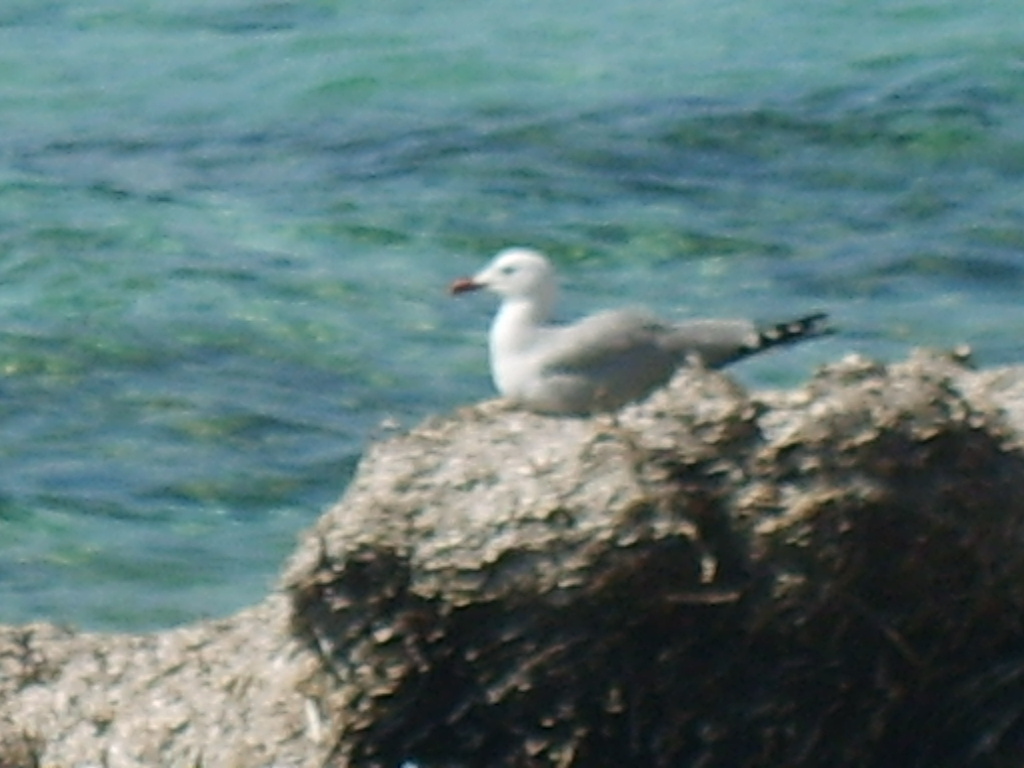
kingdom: Animalia
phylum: Chordata
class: Aves
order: Charadriiformes
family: Laridae
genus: Ichthyaetus
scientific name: Ichthyaetus audouinii
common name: Audouin's gull
